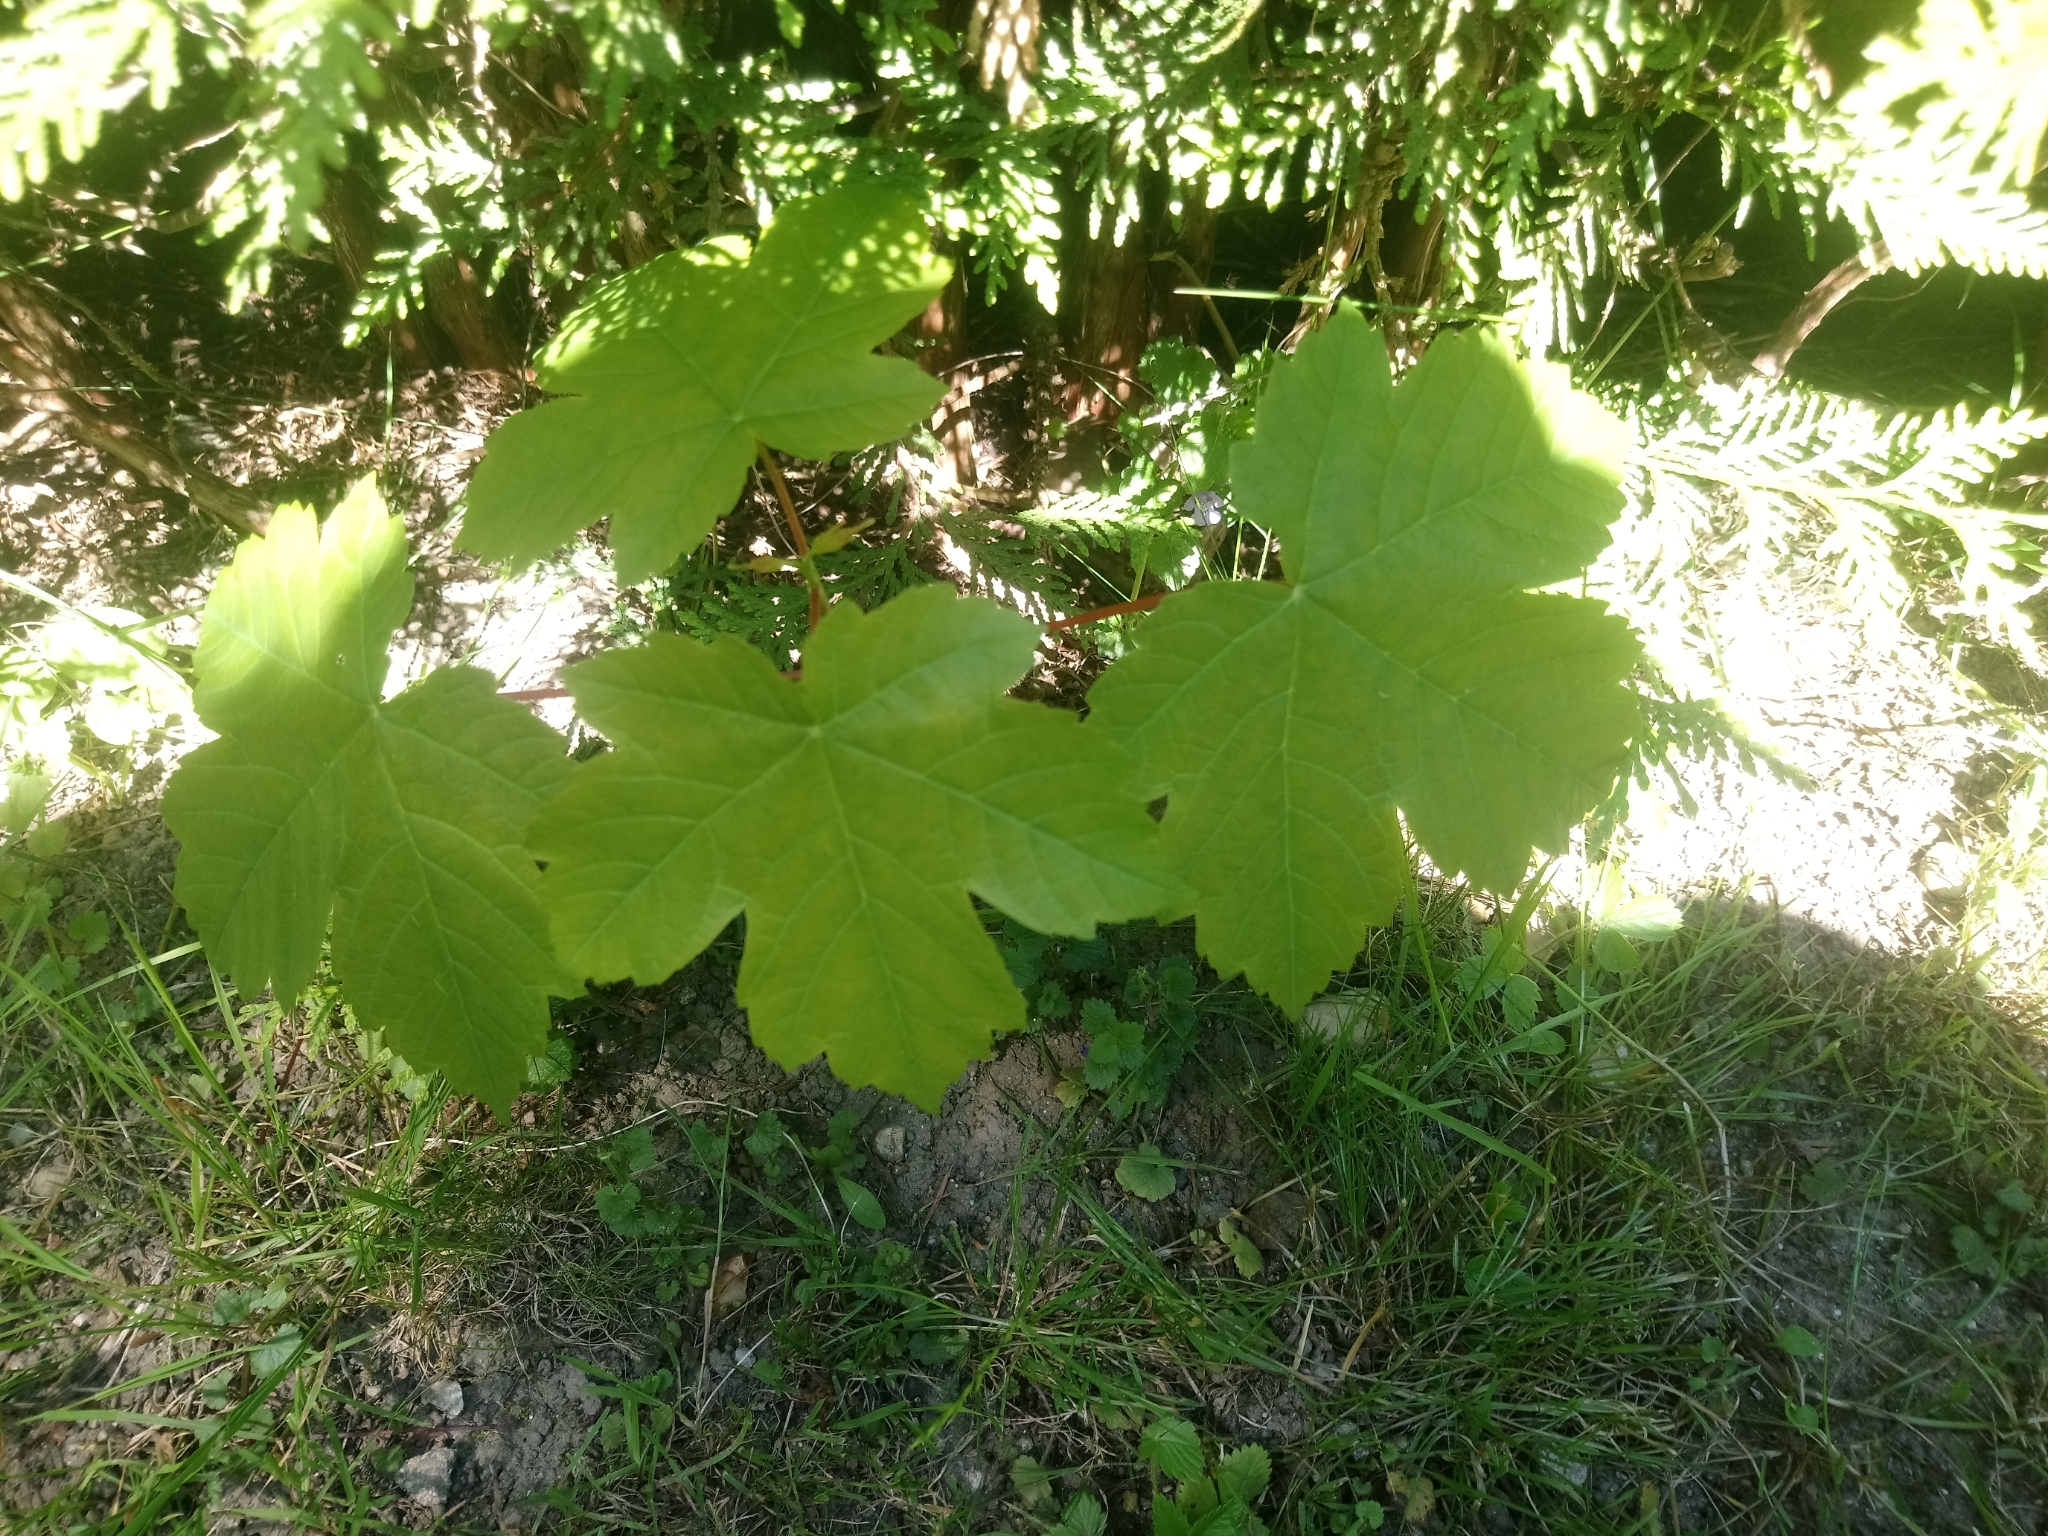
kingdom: Plantae
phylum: Tracheophyta
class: Magnoliopsida
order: Sapindales
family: Sapindaceae
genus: Acer
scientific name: Acer pseudoplatanus
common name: Sycamore
